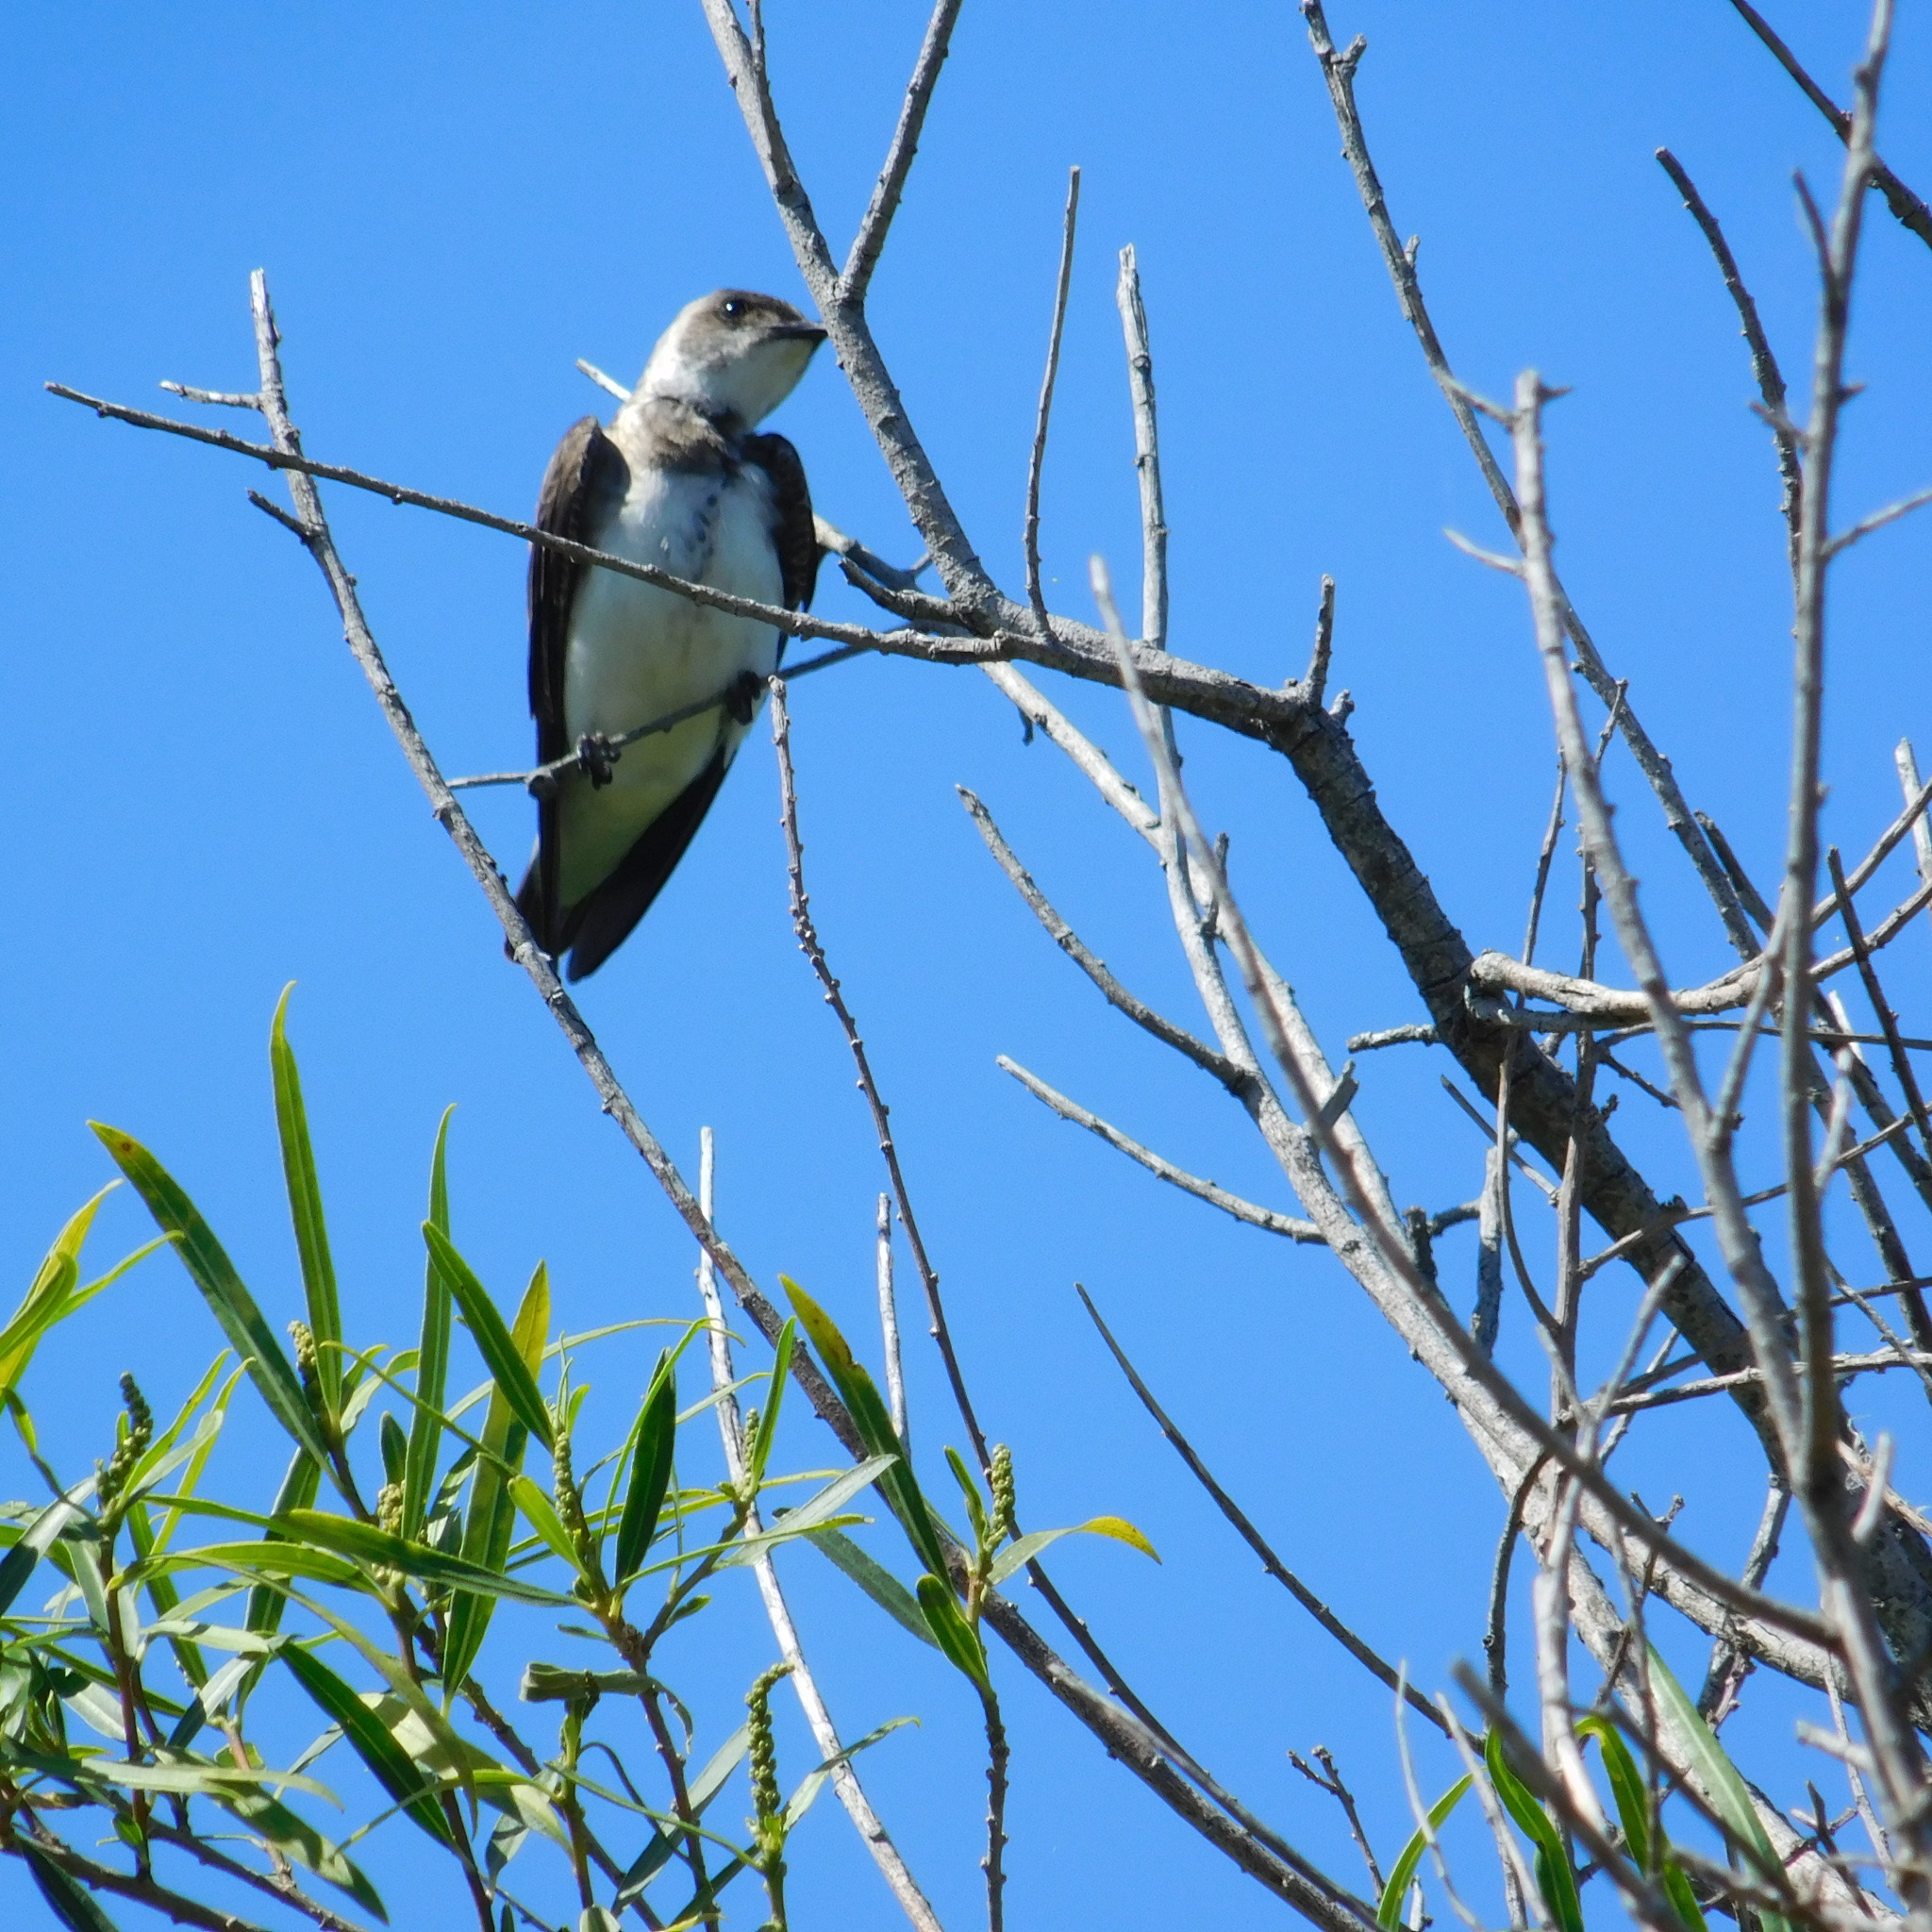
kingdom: Animalia
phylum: Chordata
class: Aves
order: Passeriformes
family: Hirundinidae
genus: Progne
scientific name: Progne tapera
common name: Brown-chested martin
